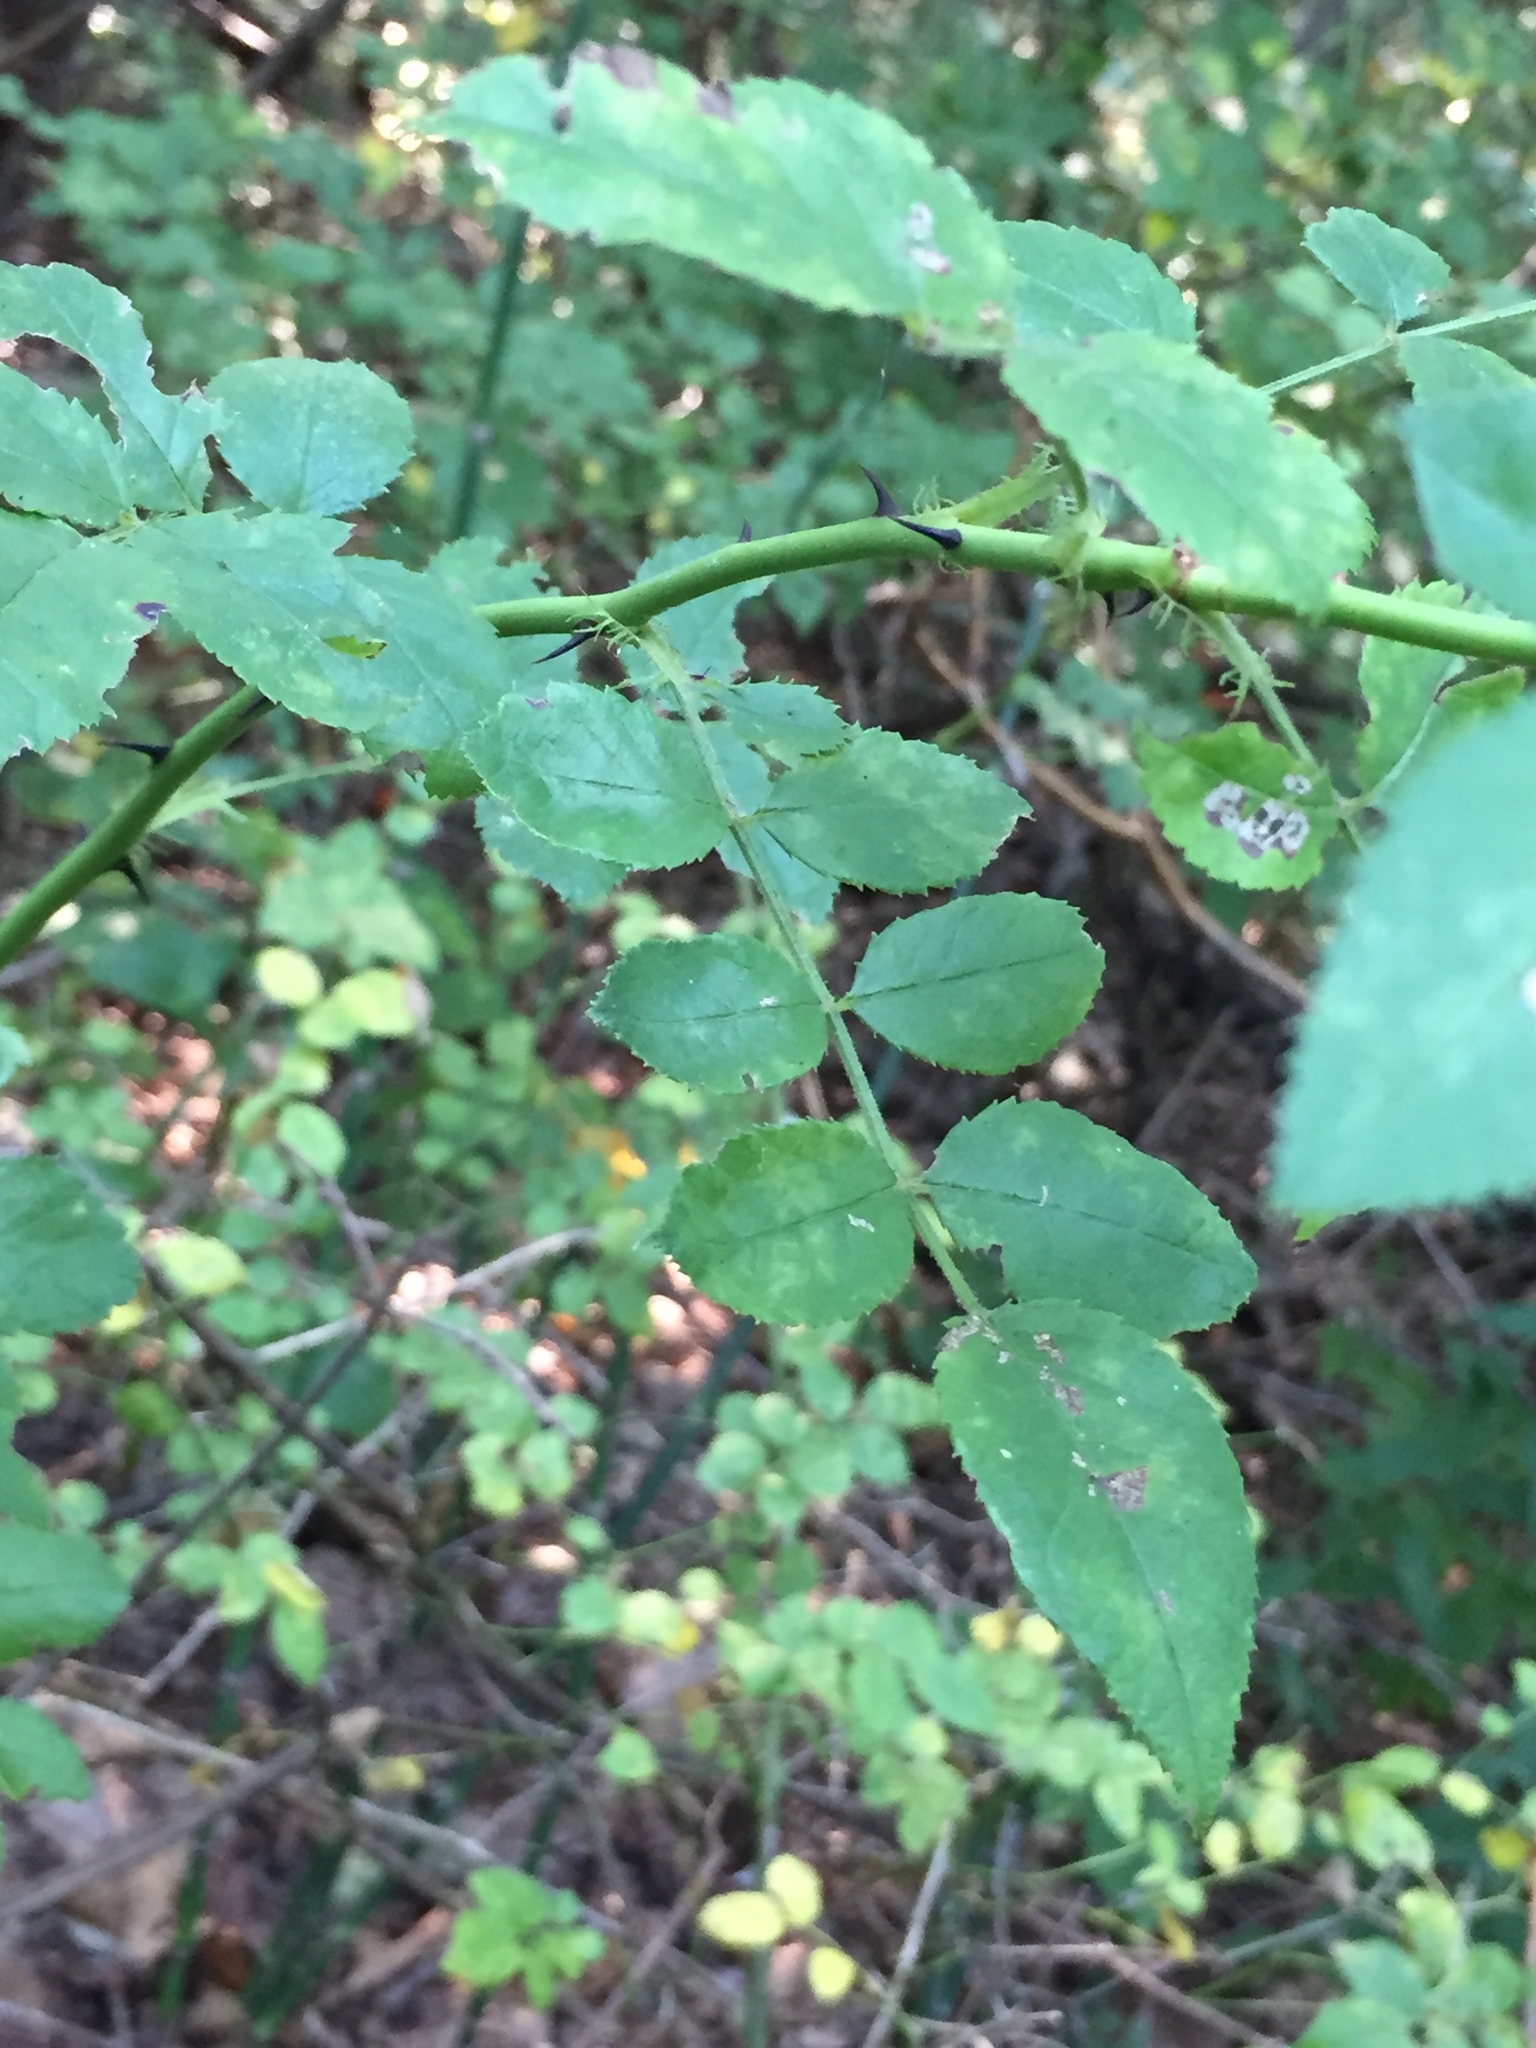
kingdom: Plantae
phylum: Tracheophyta
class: Magnoliopsida
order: Rosales
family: Rosaceae
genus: Rosa
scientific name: Rosa multiflora
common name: Multiflora rose
